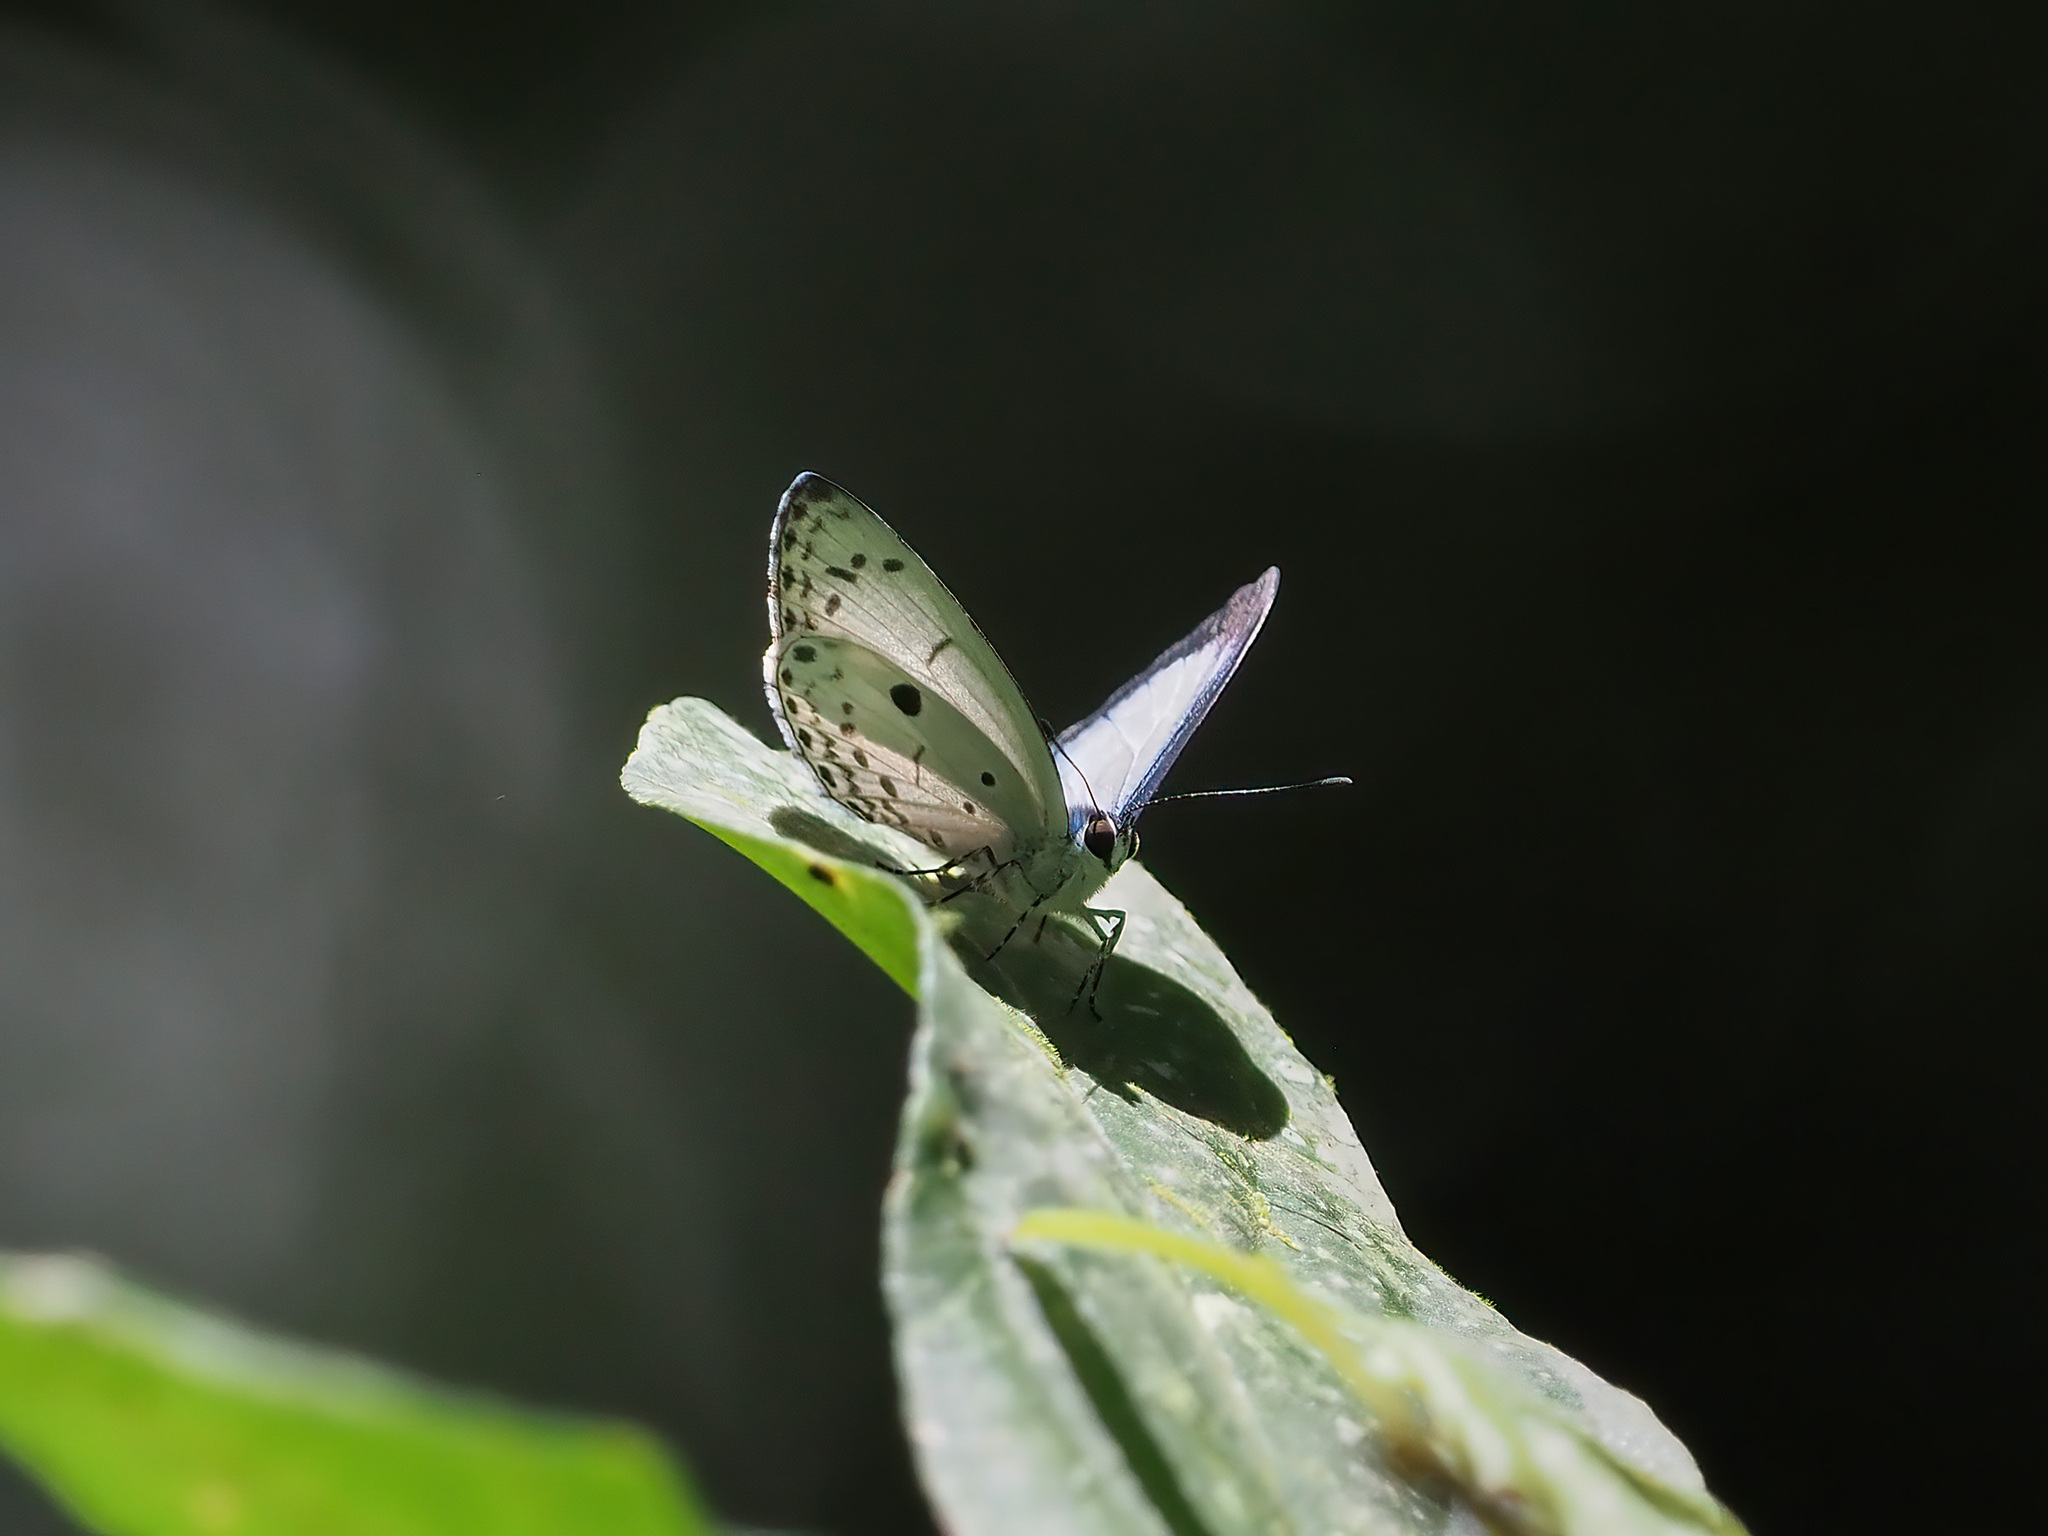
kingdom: Animalia
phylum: Arthropoda
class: Insecta
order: Lepidoptera
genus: Plautella
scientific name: Plautella
